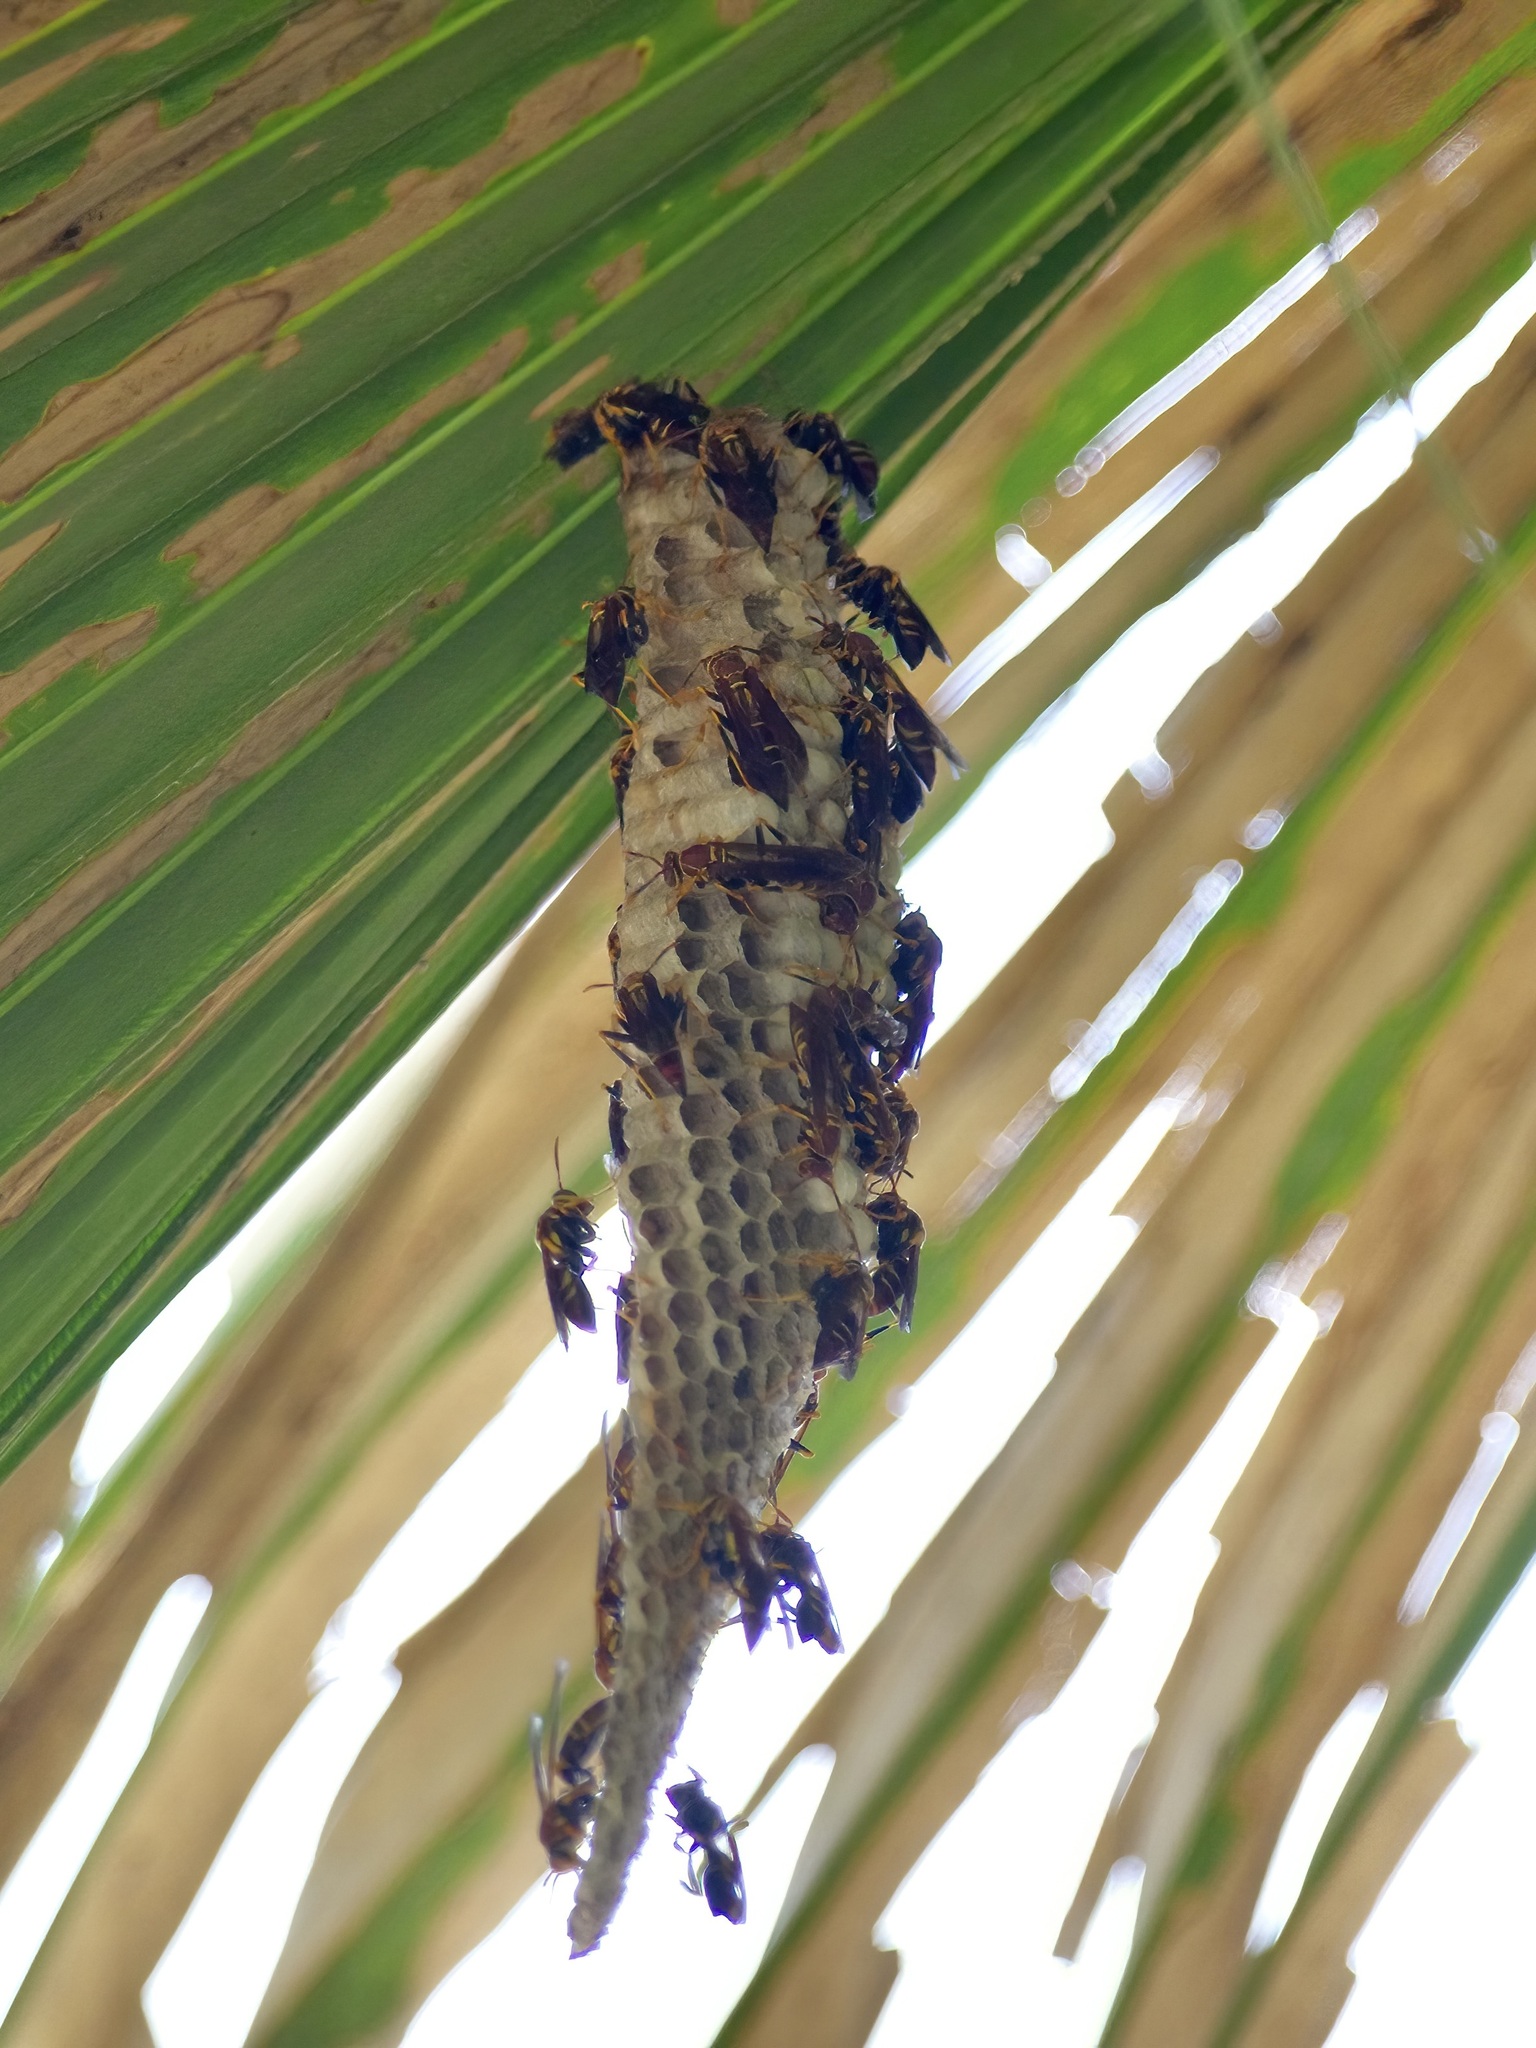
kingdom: Animalia
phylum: Arthropoda
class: Insecta
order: Hymenoptera
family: Eumenidae
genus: Polistes
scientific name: Polistes instabilis
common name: Unstable paper wasp
